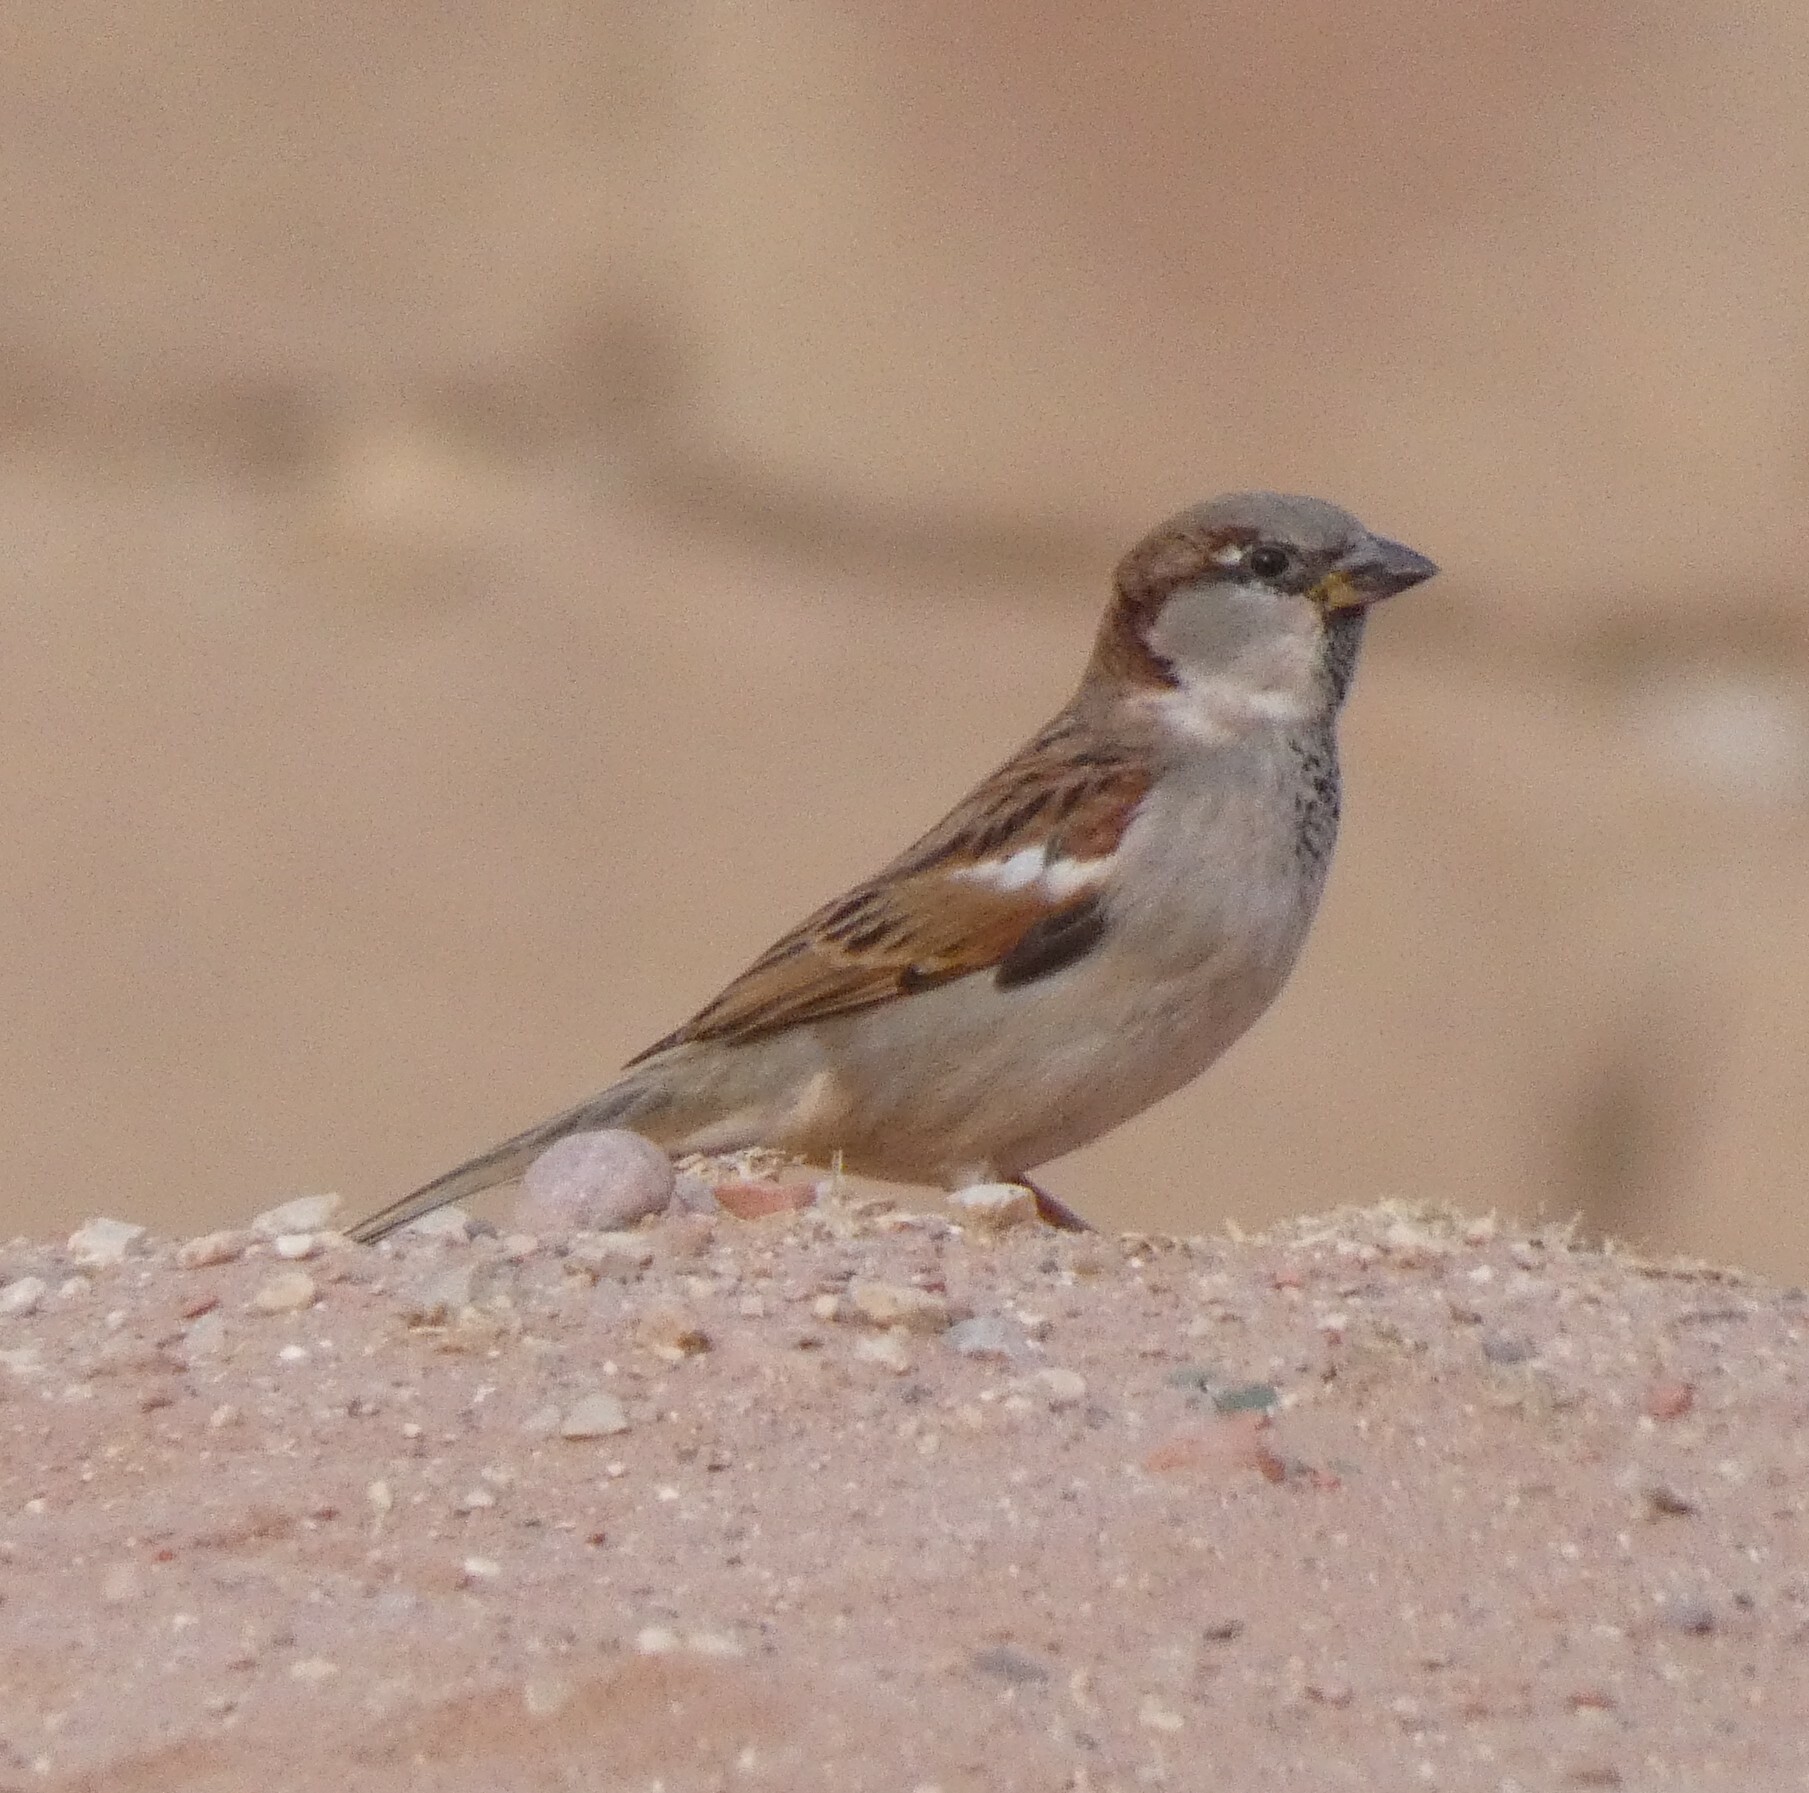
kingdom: Animalia
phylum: Chordata
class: Aves
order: Passeriformes
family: Passeridae
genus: Passer
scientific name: Passer domesticus
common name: House sparrow
